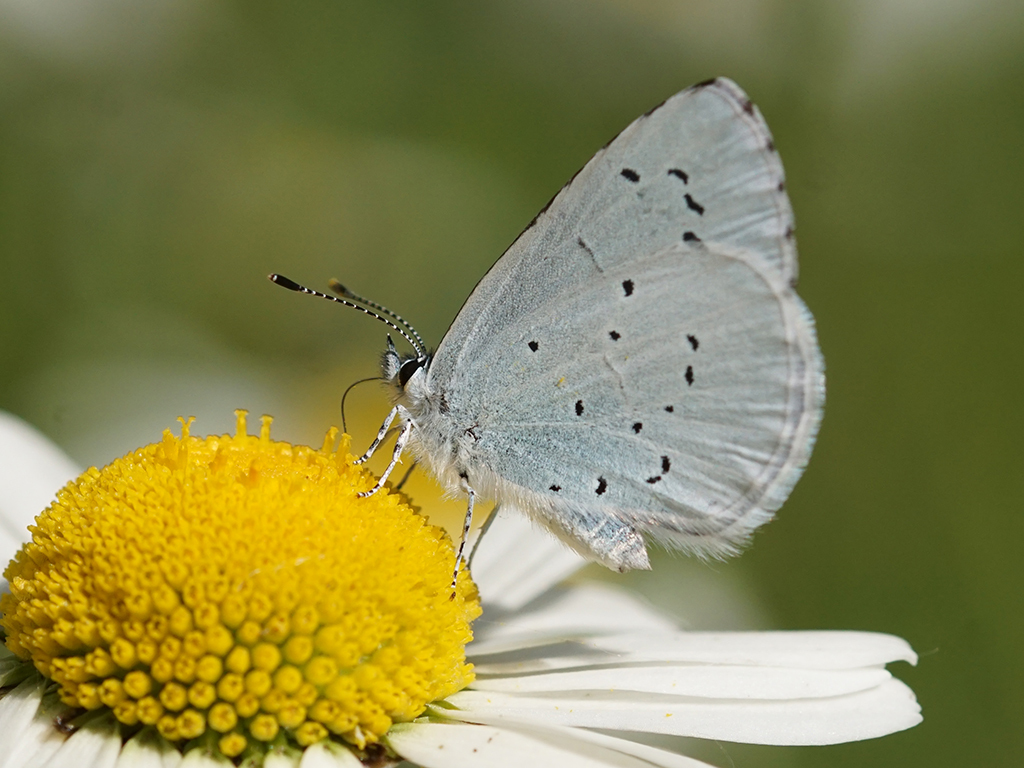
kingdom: Animalia
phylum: Arthropoda
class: Insecta
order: Lepidoptera
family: Lycaenidae
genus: Celastrina
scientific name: Celastrina argiolus
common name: Holly blue
